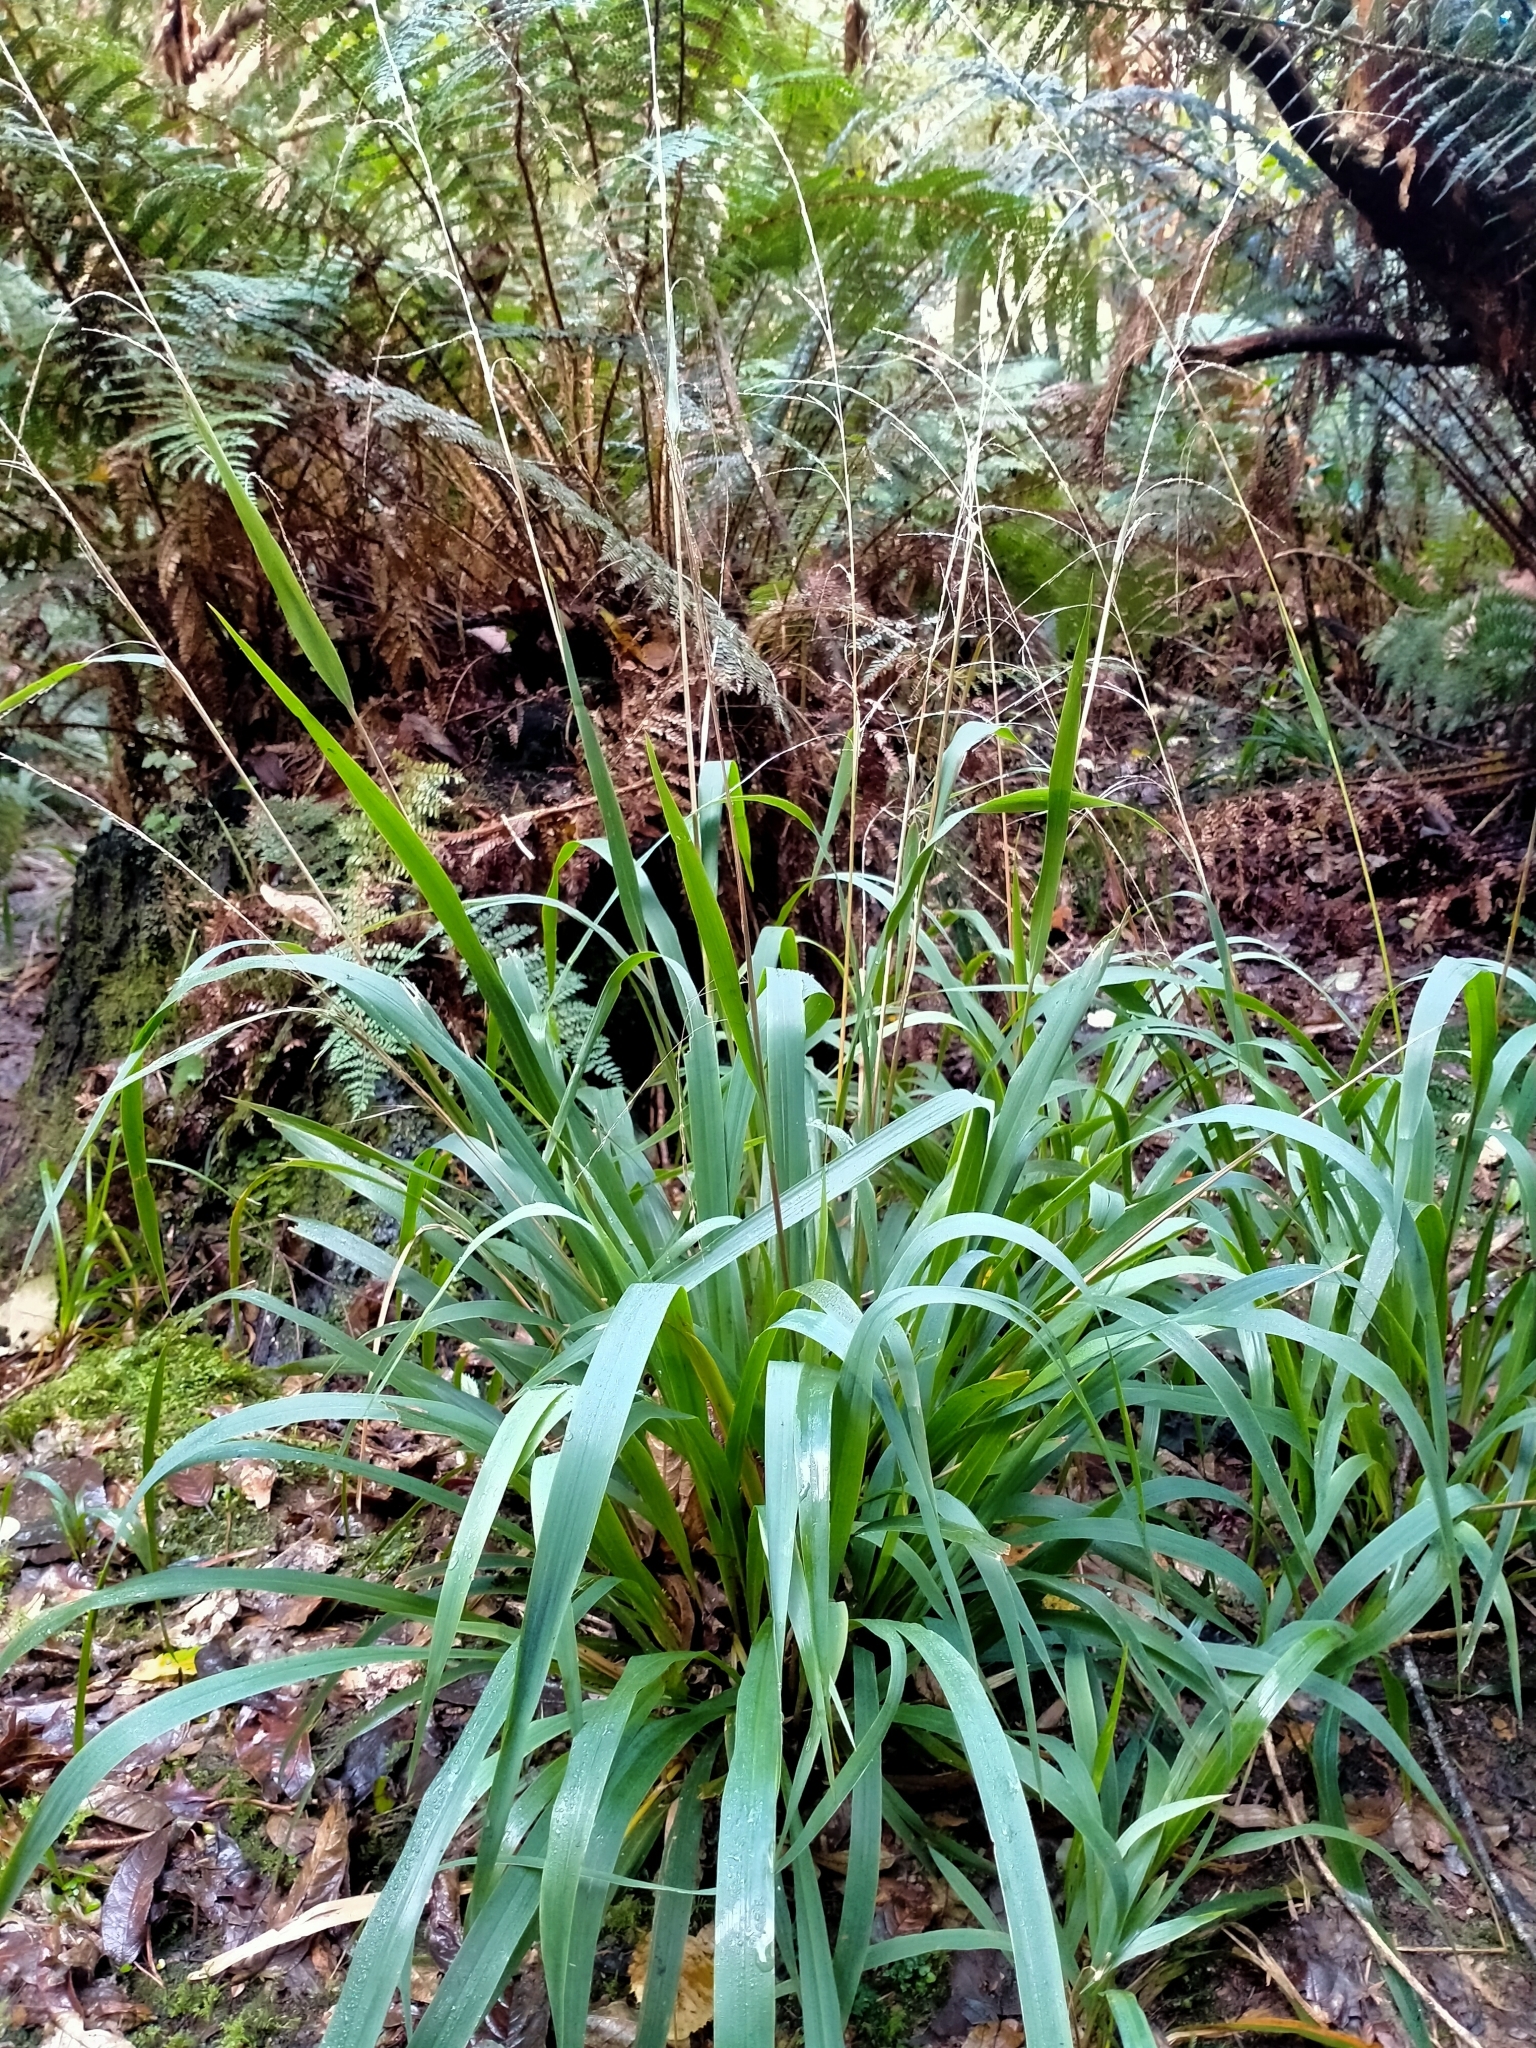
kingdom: Plantae
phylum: Tracheophyta
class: Liliopsida
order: Poales
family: Poaceae
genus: Ehrharta
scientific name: Ehrharta diplax
